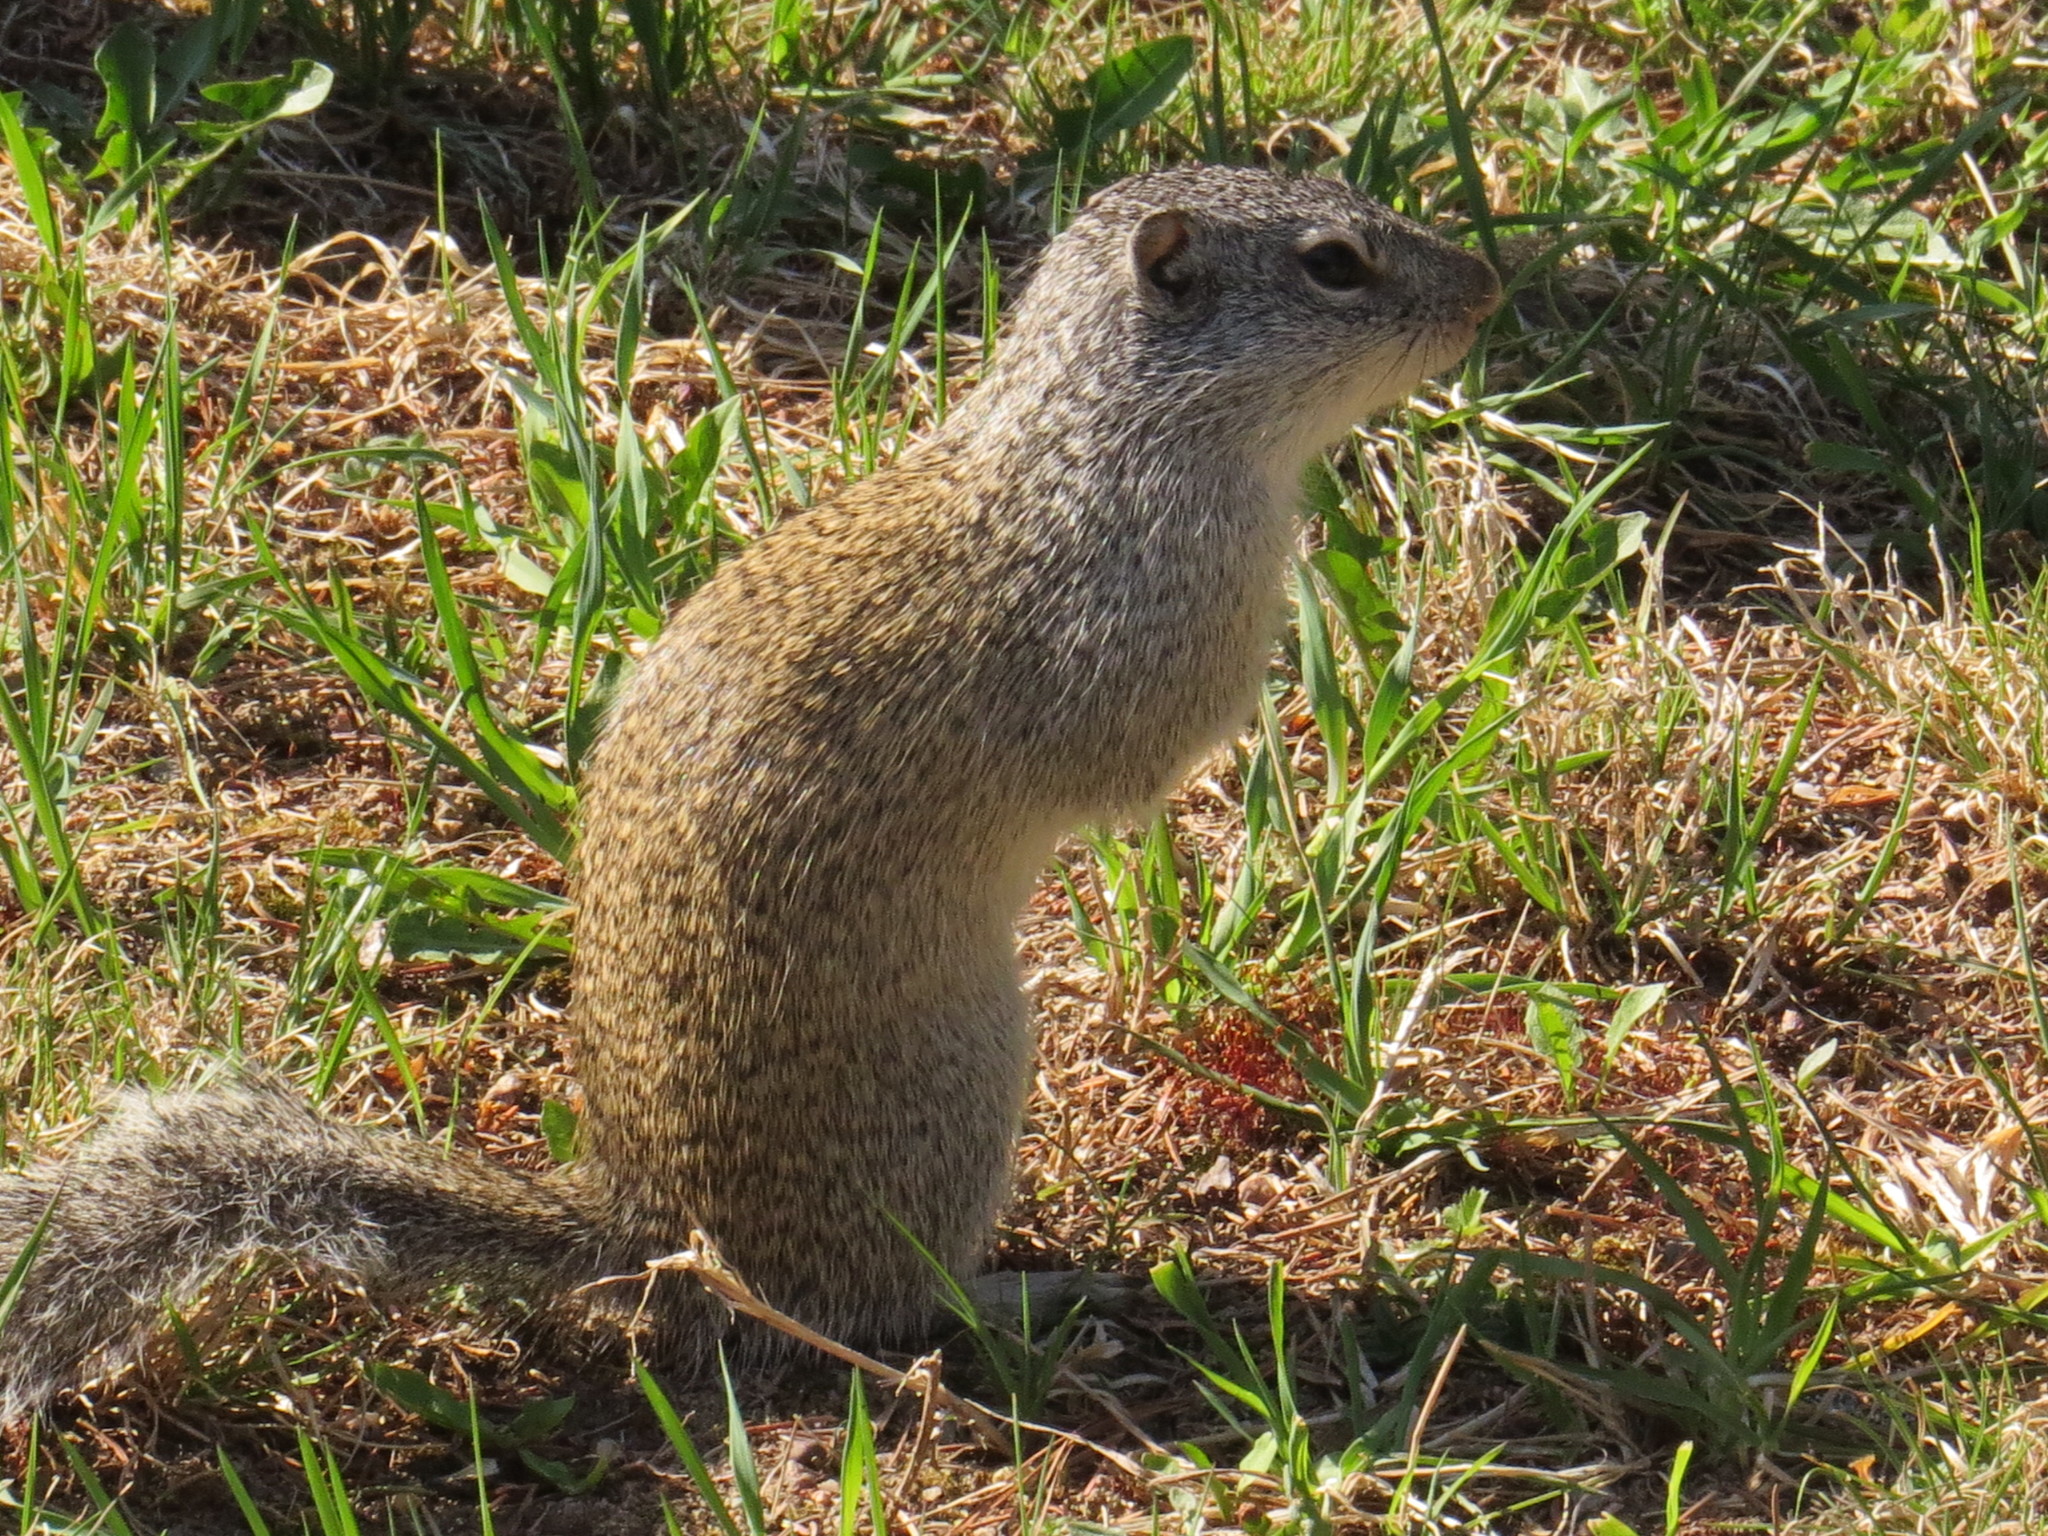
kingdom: Animalia
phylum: Chordata
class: Mammalia
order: Rodentia
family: Sciuridae
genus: Poliocitellus
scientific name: Poliocitellus franklinii
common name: Franklin's ground squirrel
